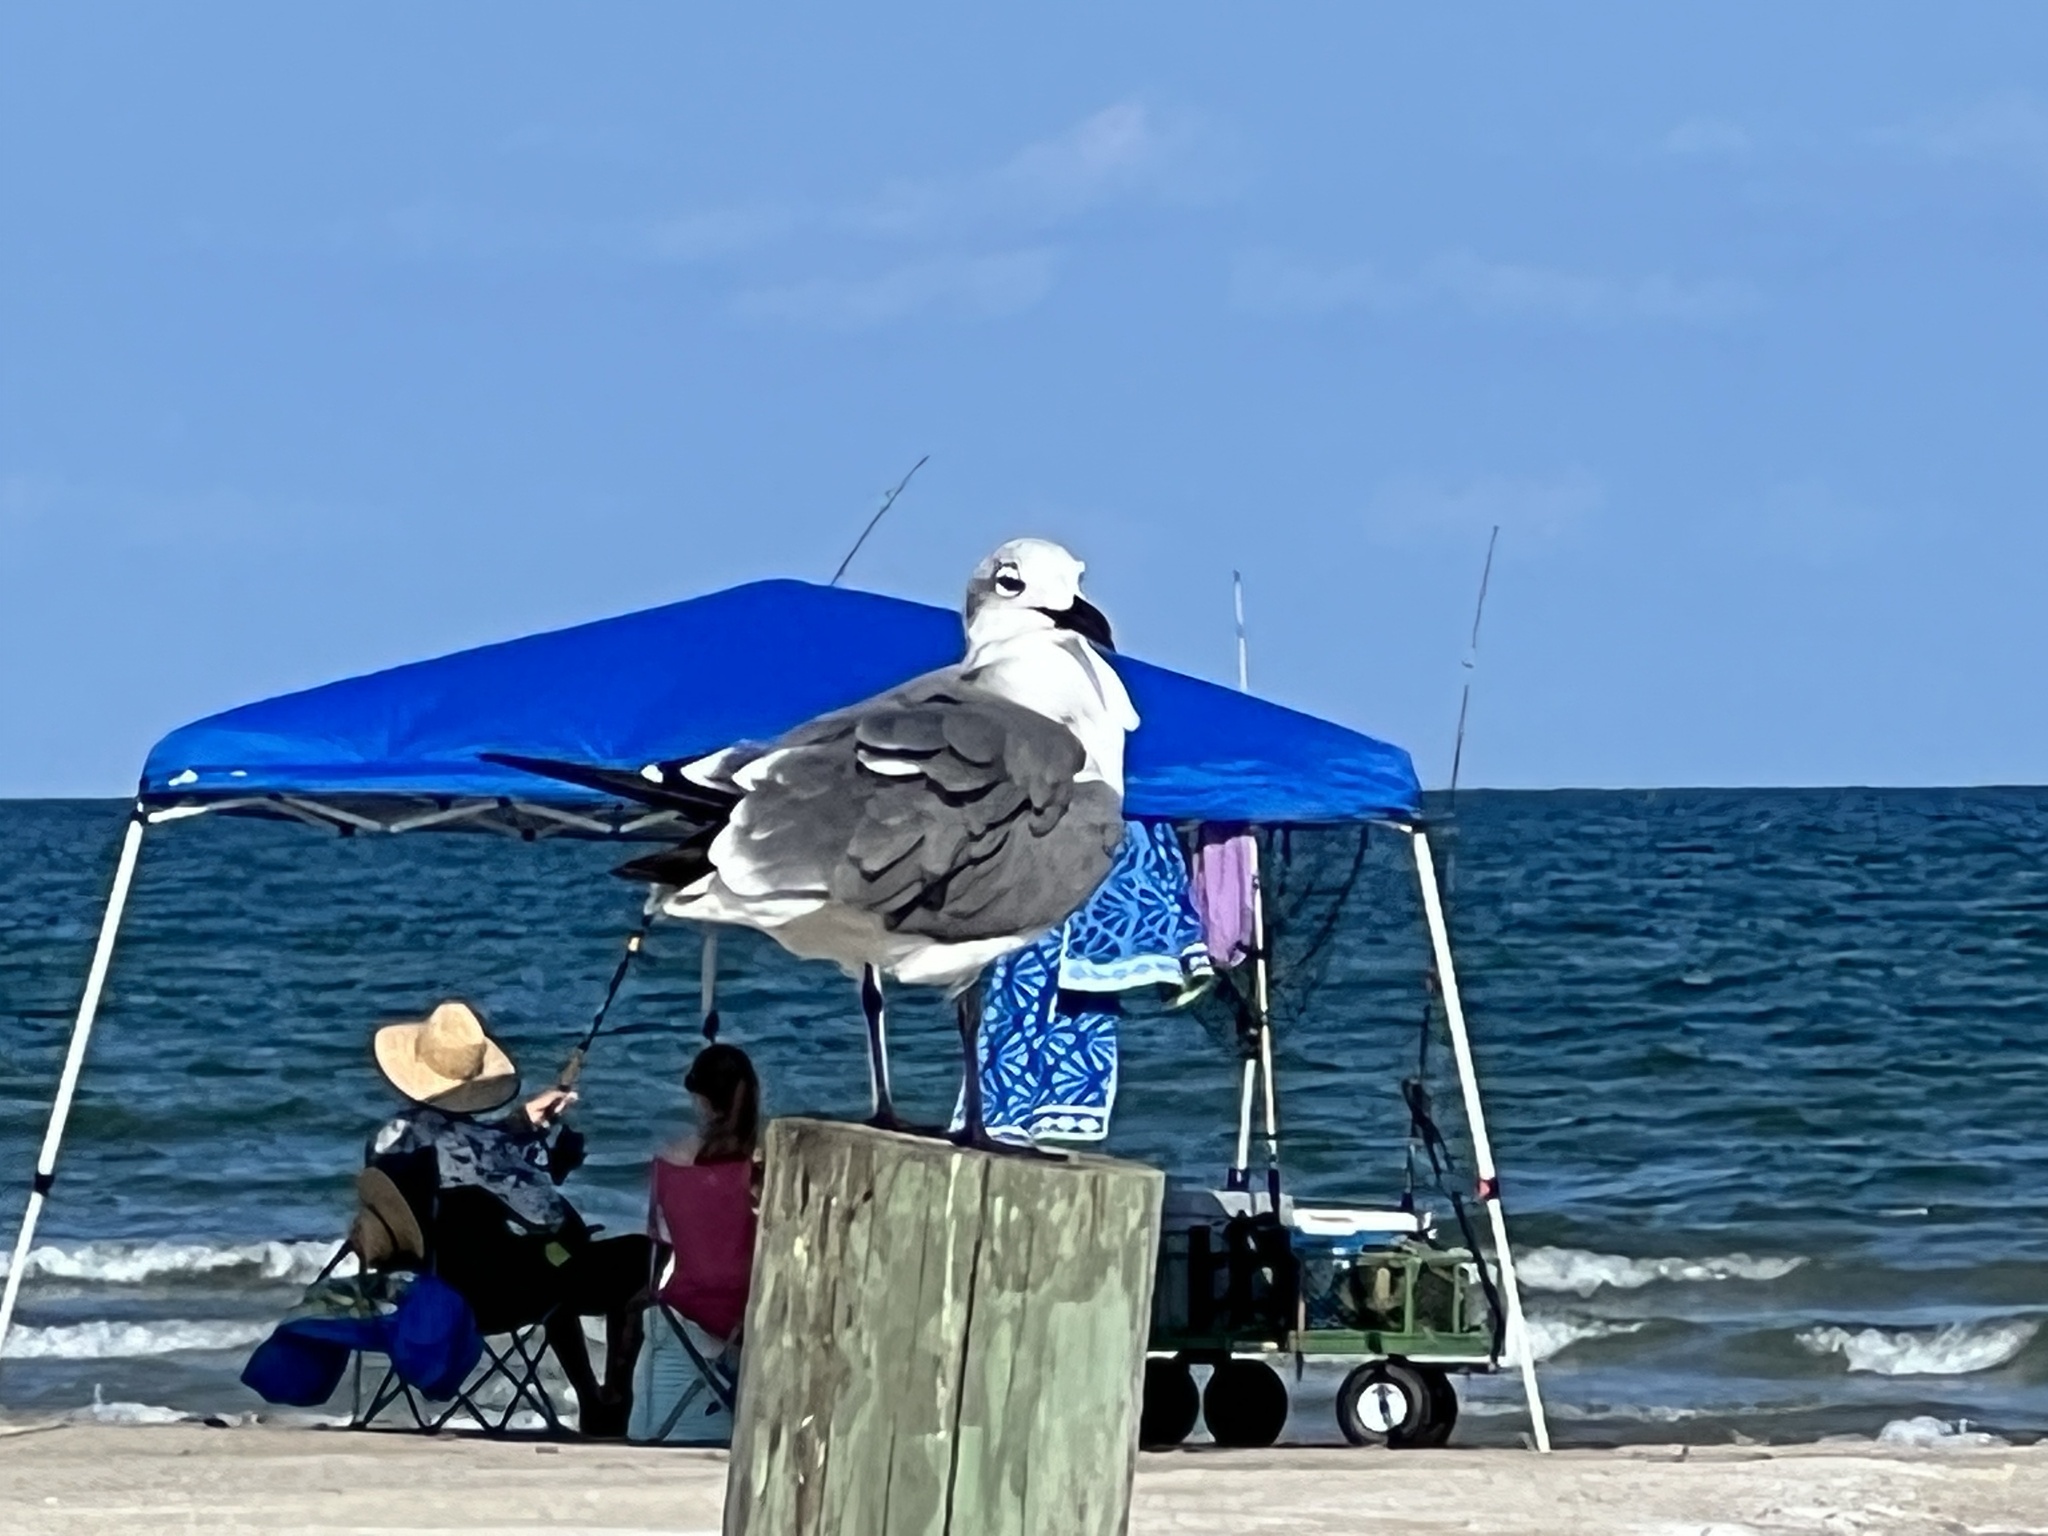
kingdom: Animalia
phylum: Chordata
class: Aves
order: Charadriiformes
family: Laridae
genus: Leucophaeus
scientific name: Leucophaeus atricilla
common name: Laughing gull
